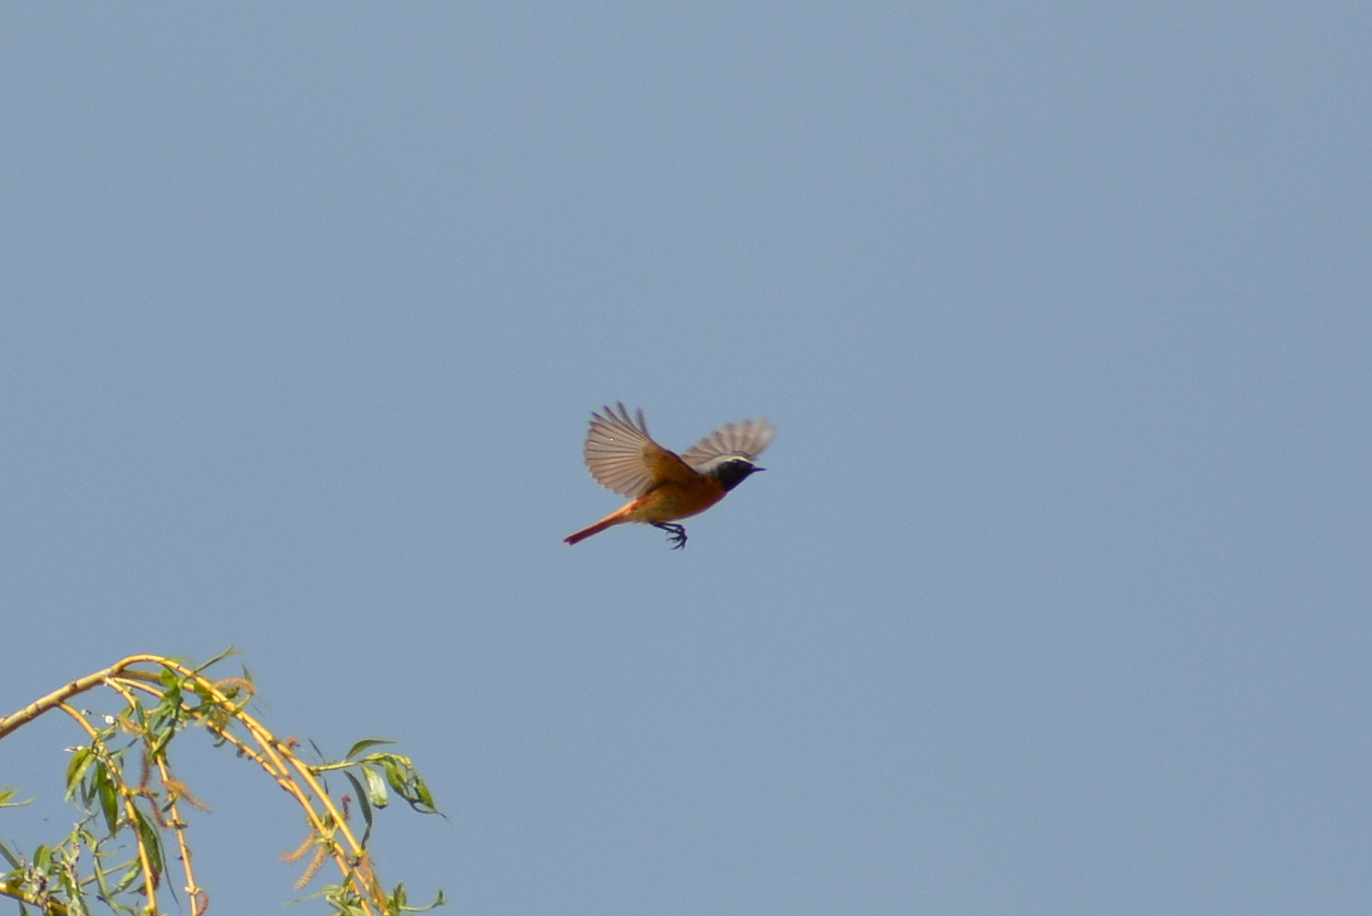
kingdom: Animalia
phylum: Chordata
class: Aves
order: Passeriformes
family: Muscicapidae
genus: Phoenicurus
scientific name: Phoenicurus phoenicurus
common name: Common redstart
